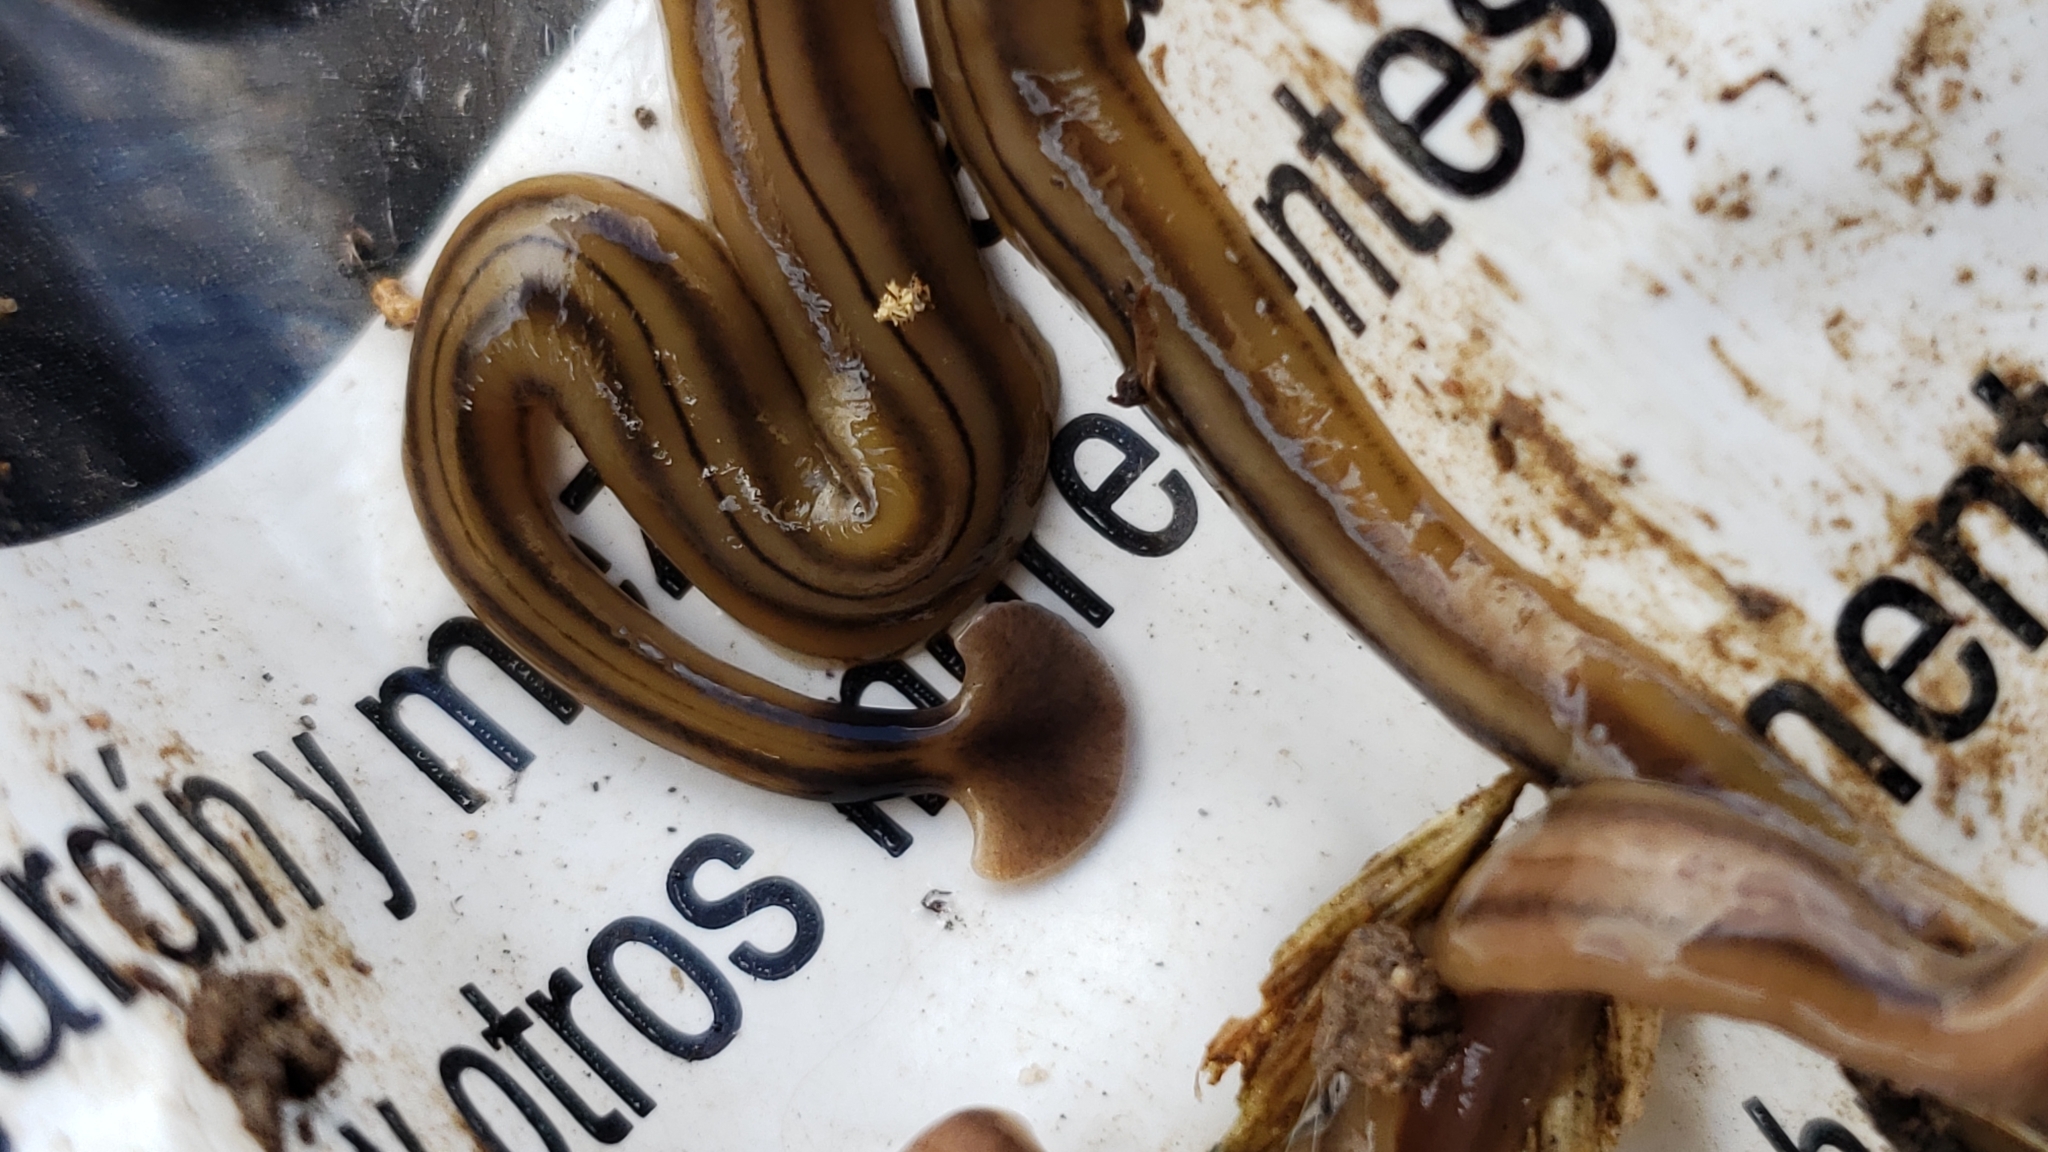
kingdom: Animalia
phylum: Platyhelminthes
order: Tricladida
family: Geoplanidae
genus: Bipalium
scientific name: Bipalium kewense
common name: Hammerhead flatworm
